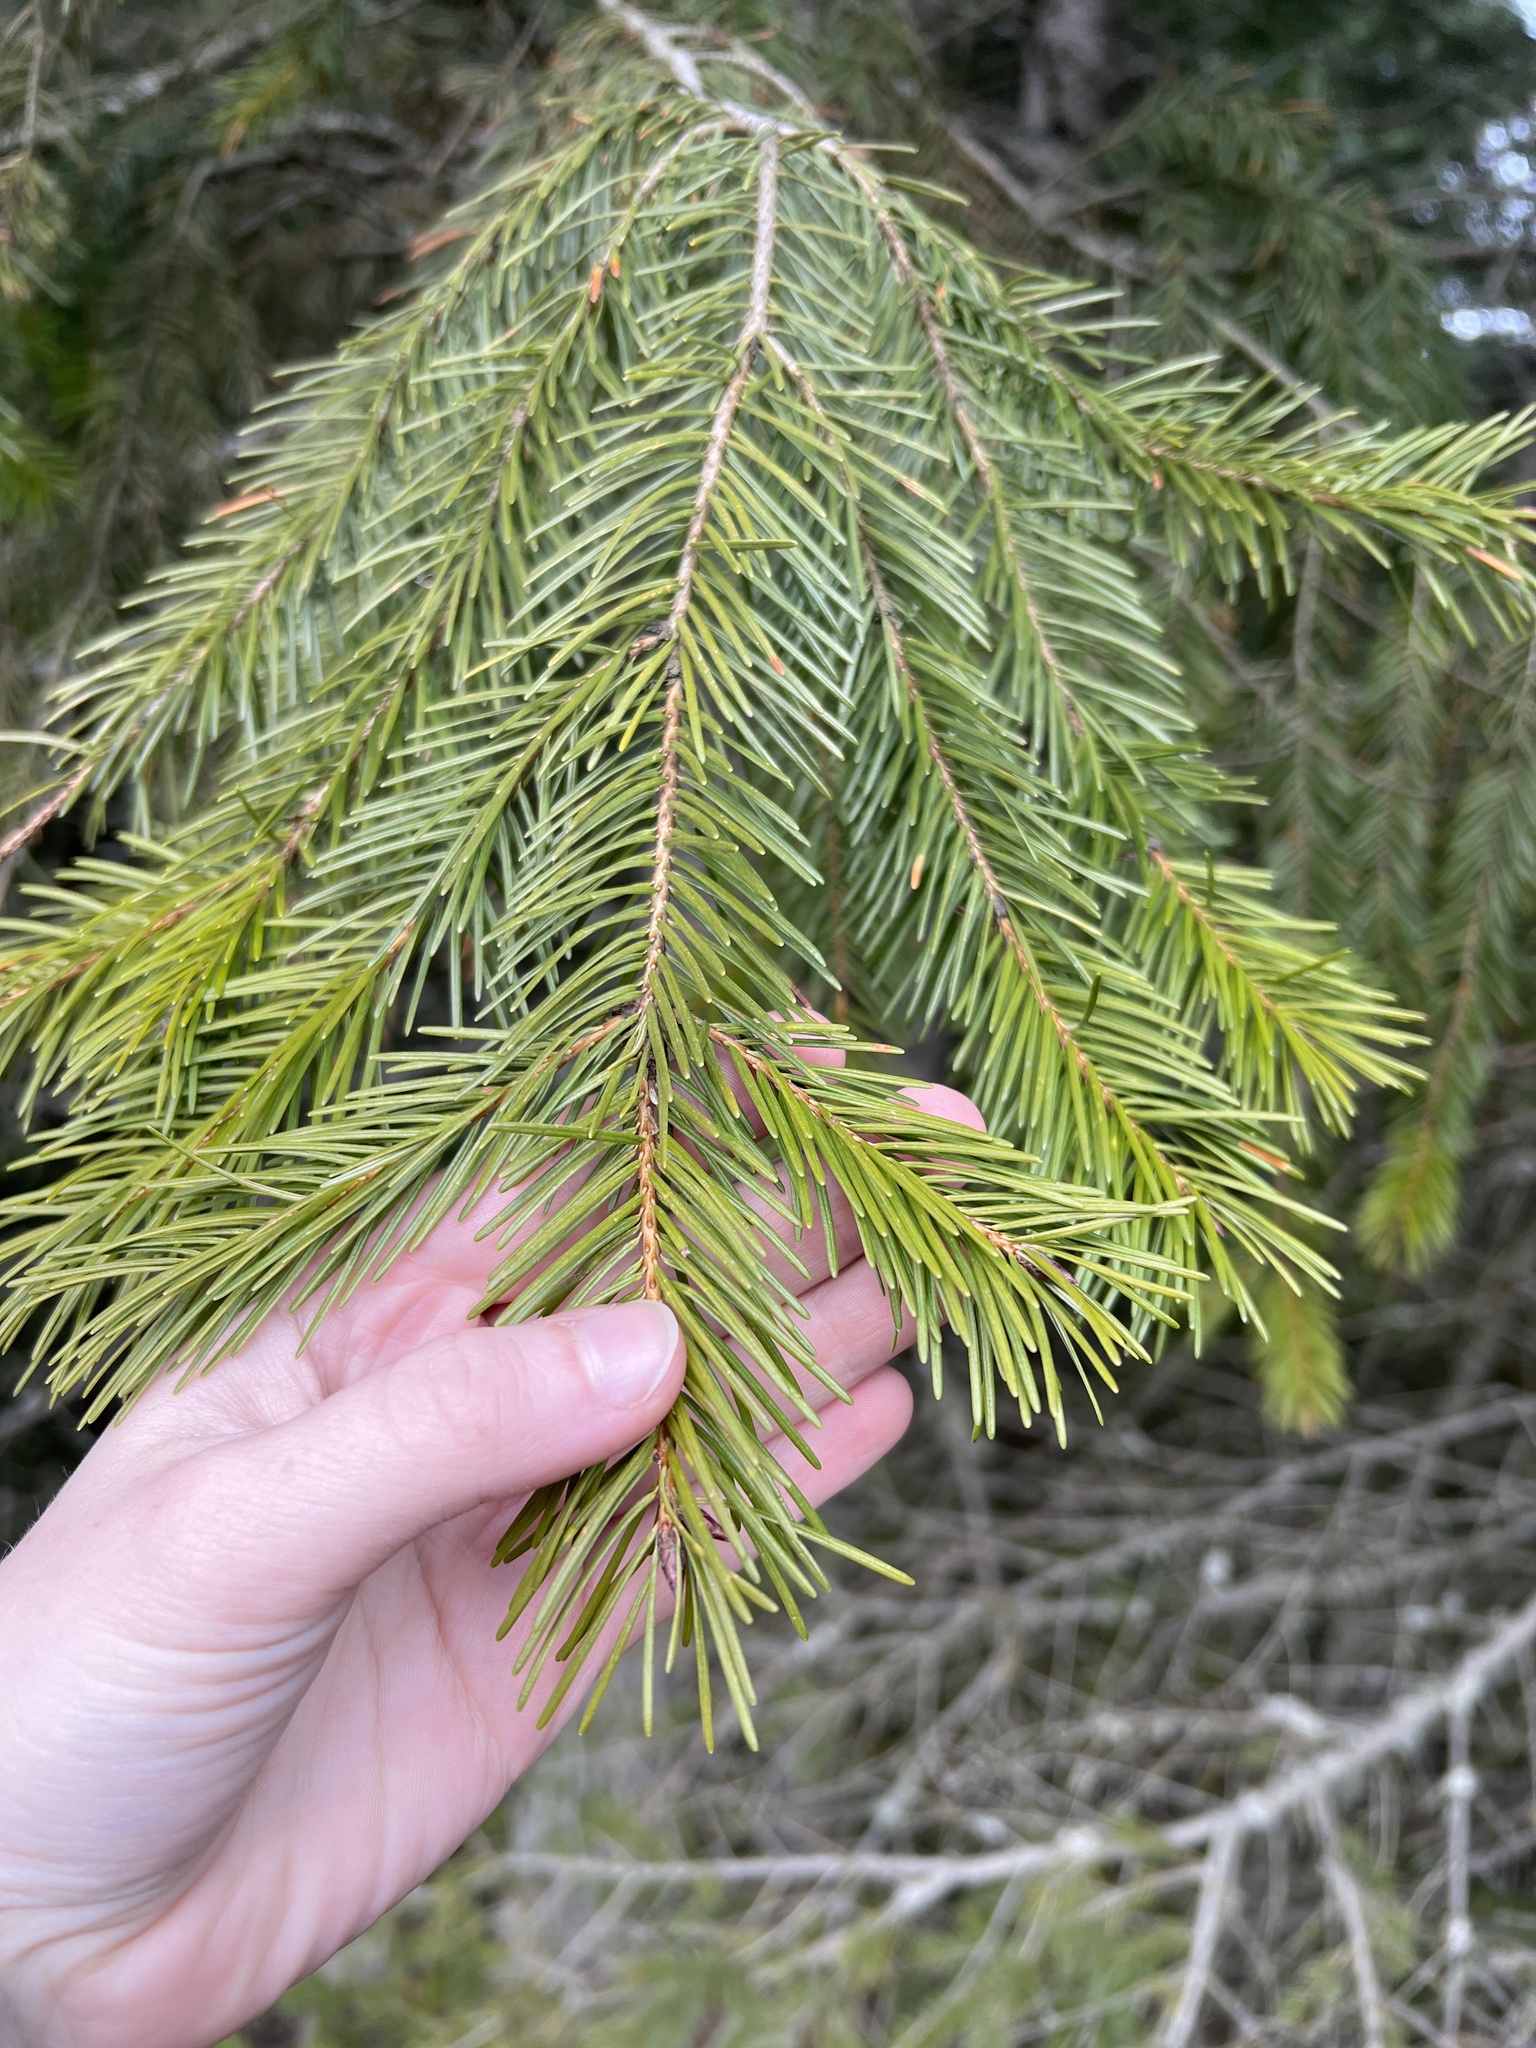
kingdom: Plantae
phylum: Tracheophyta
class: Pinopsida
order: Pinales
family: Pinaceae
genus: Pseudotsuga
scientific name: Pseudotsuga menziesii
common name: Douglas fir
